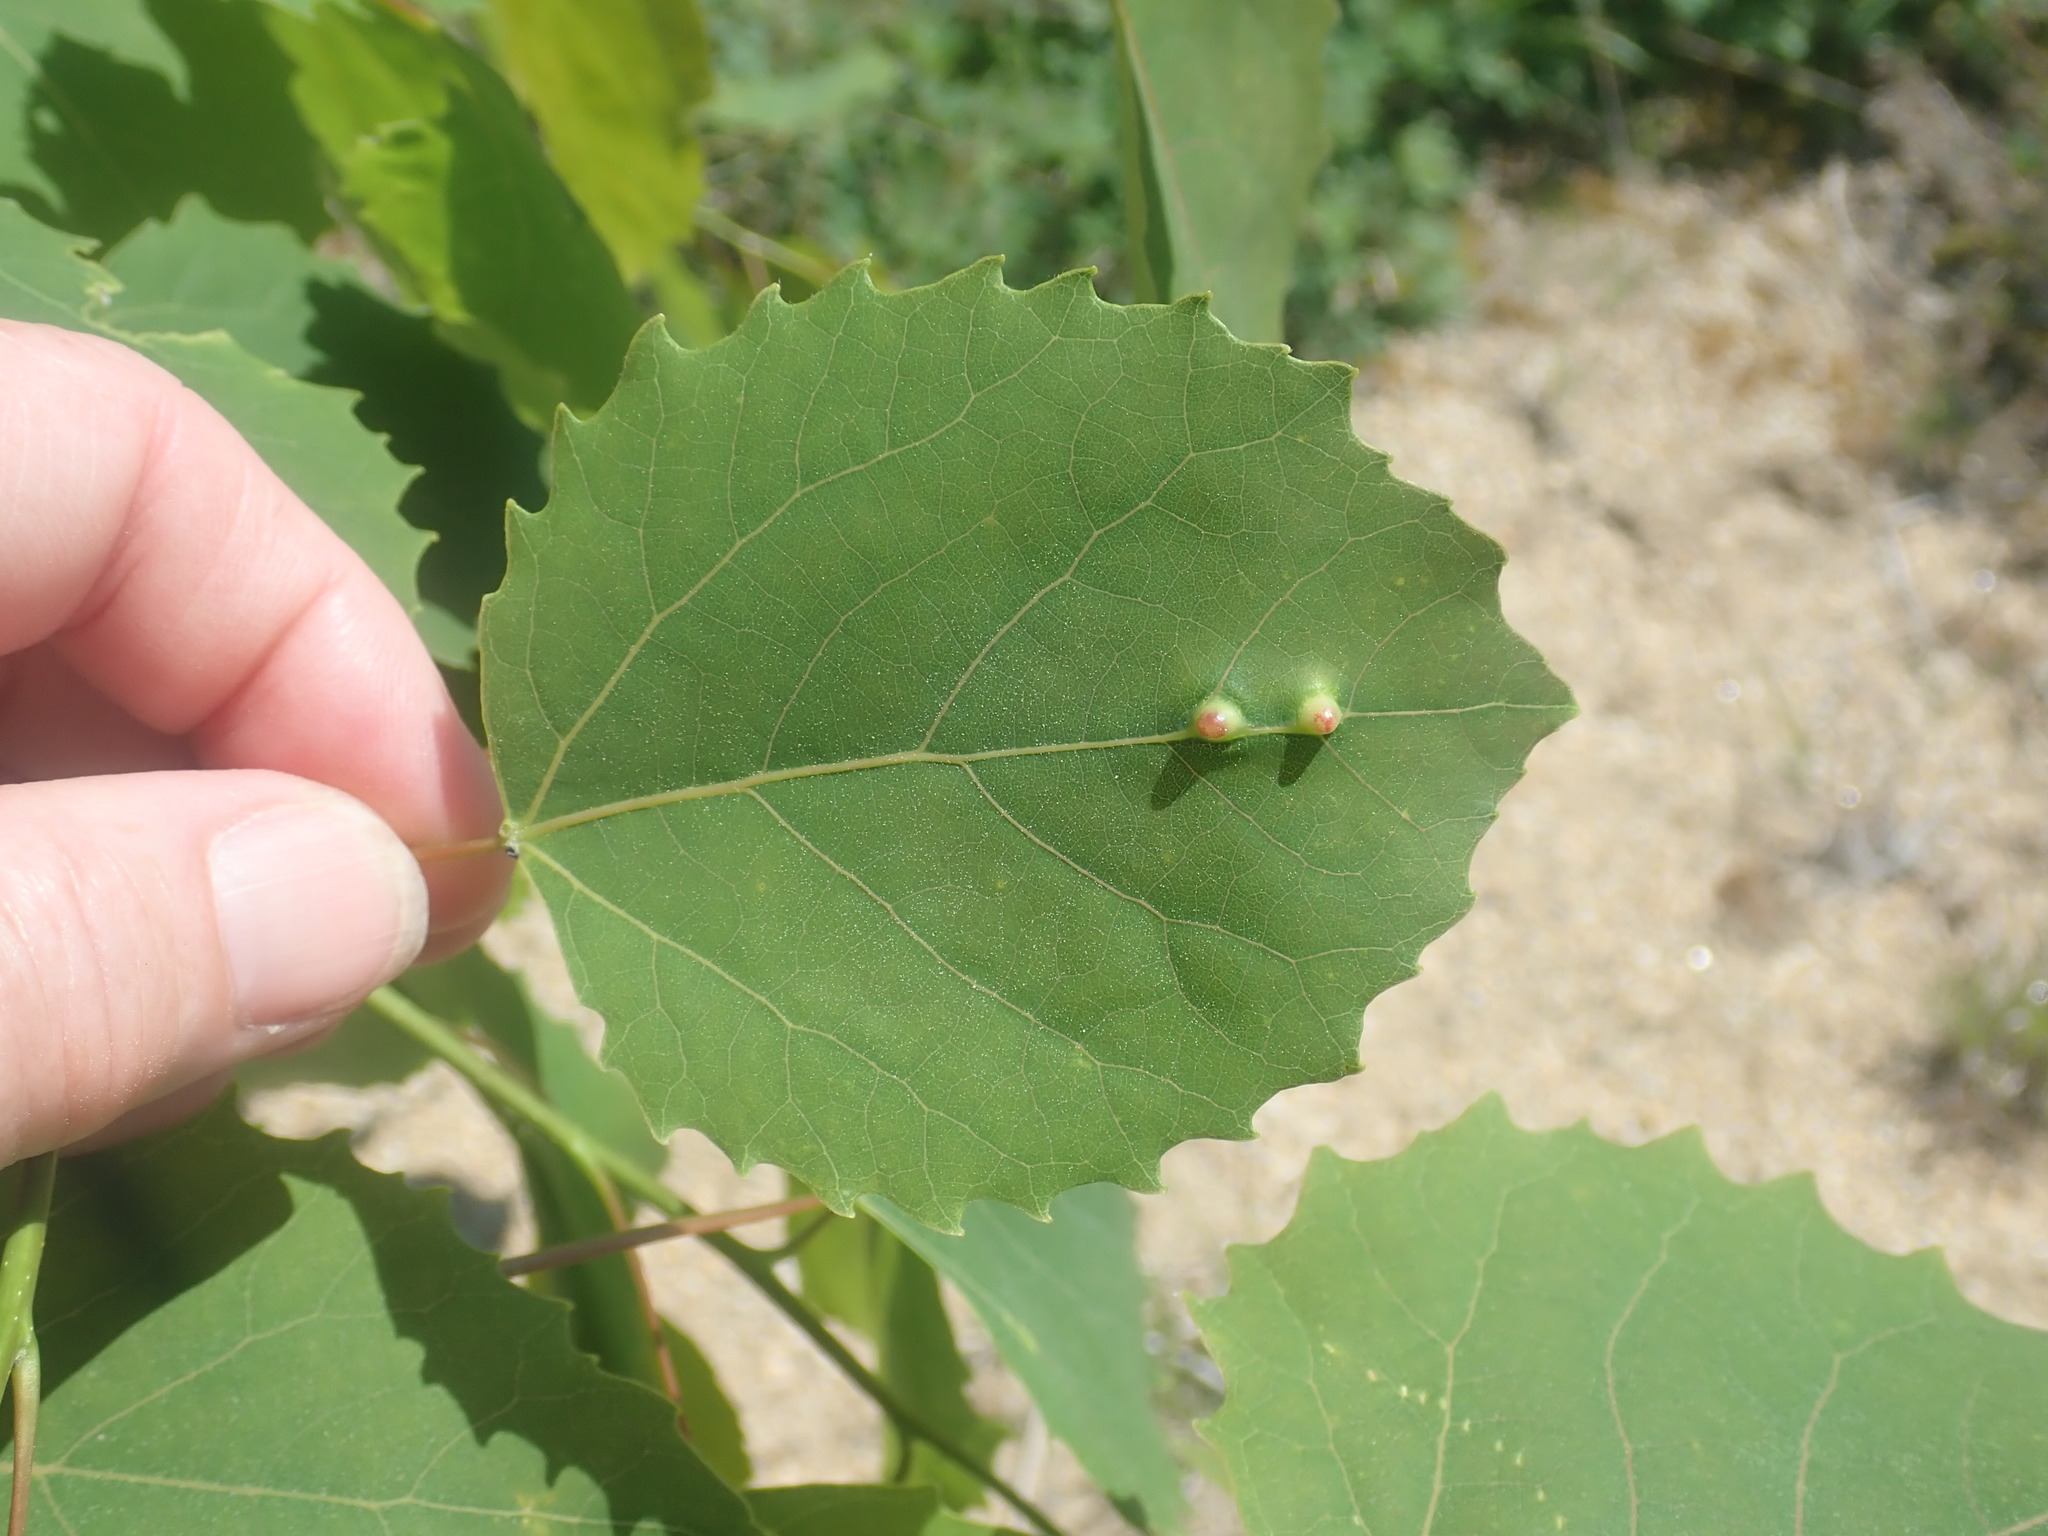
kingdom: Plantae
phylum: Tracheophyta
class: Magnoliopsida
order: Malpighiales
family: Salicaceae
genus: Populus
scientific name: Populus grandidentata
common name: Bigtooth aspen
